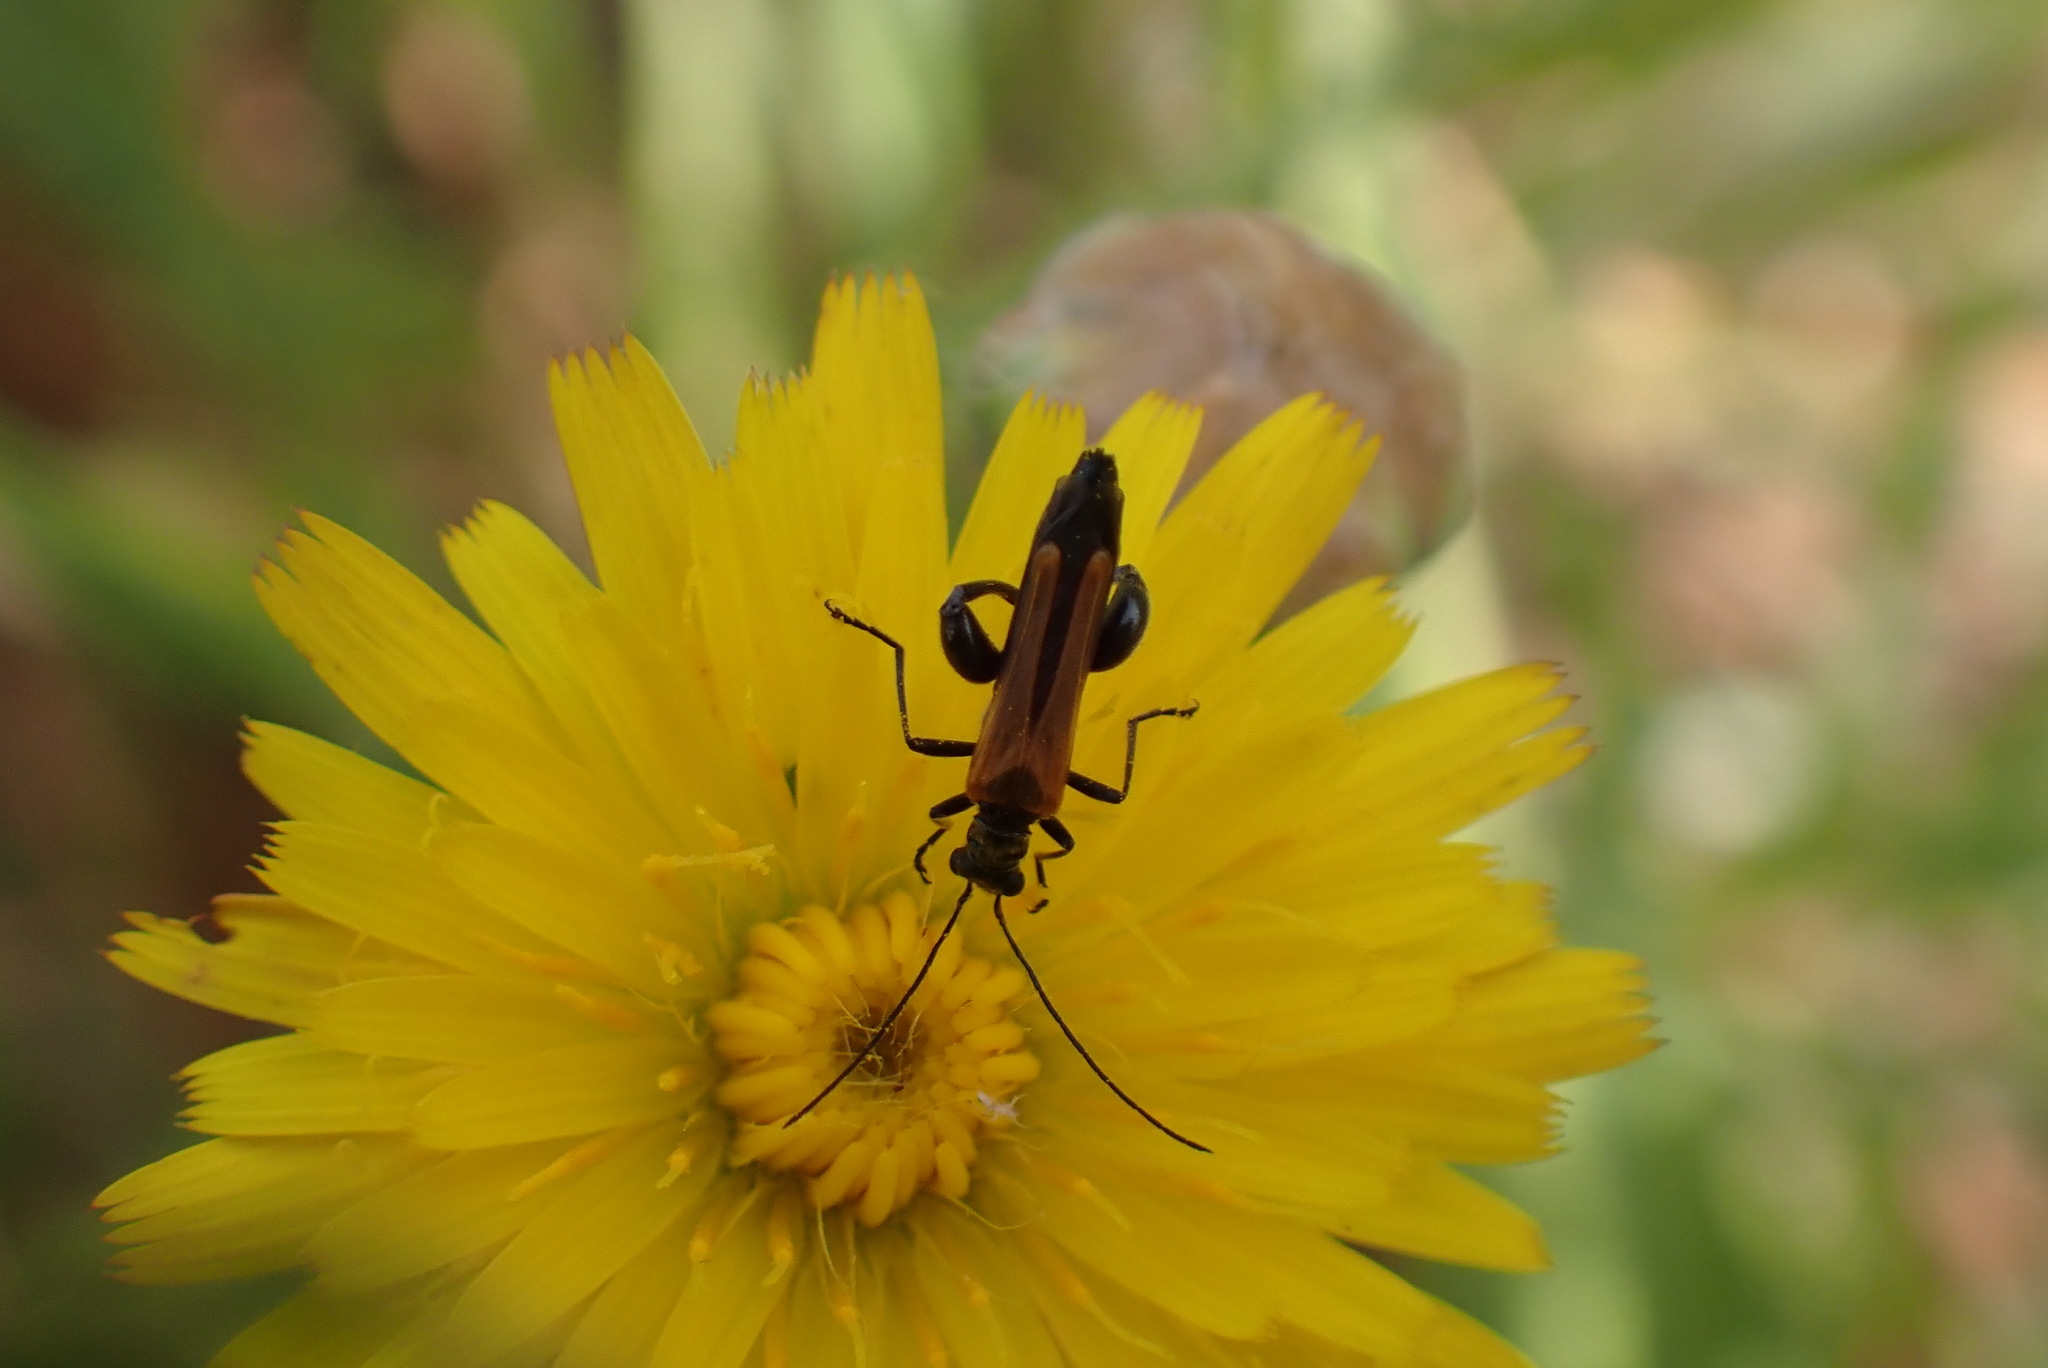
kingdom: Animalia
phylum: Arthropoda
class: Insecta
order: Coleoptera
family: Oedemeridae
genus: Oedemera
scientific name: Oedemera femorata
